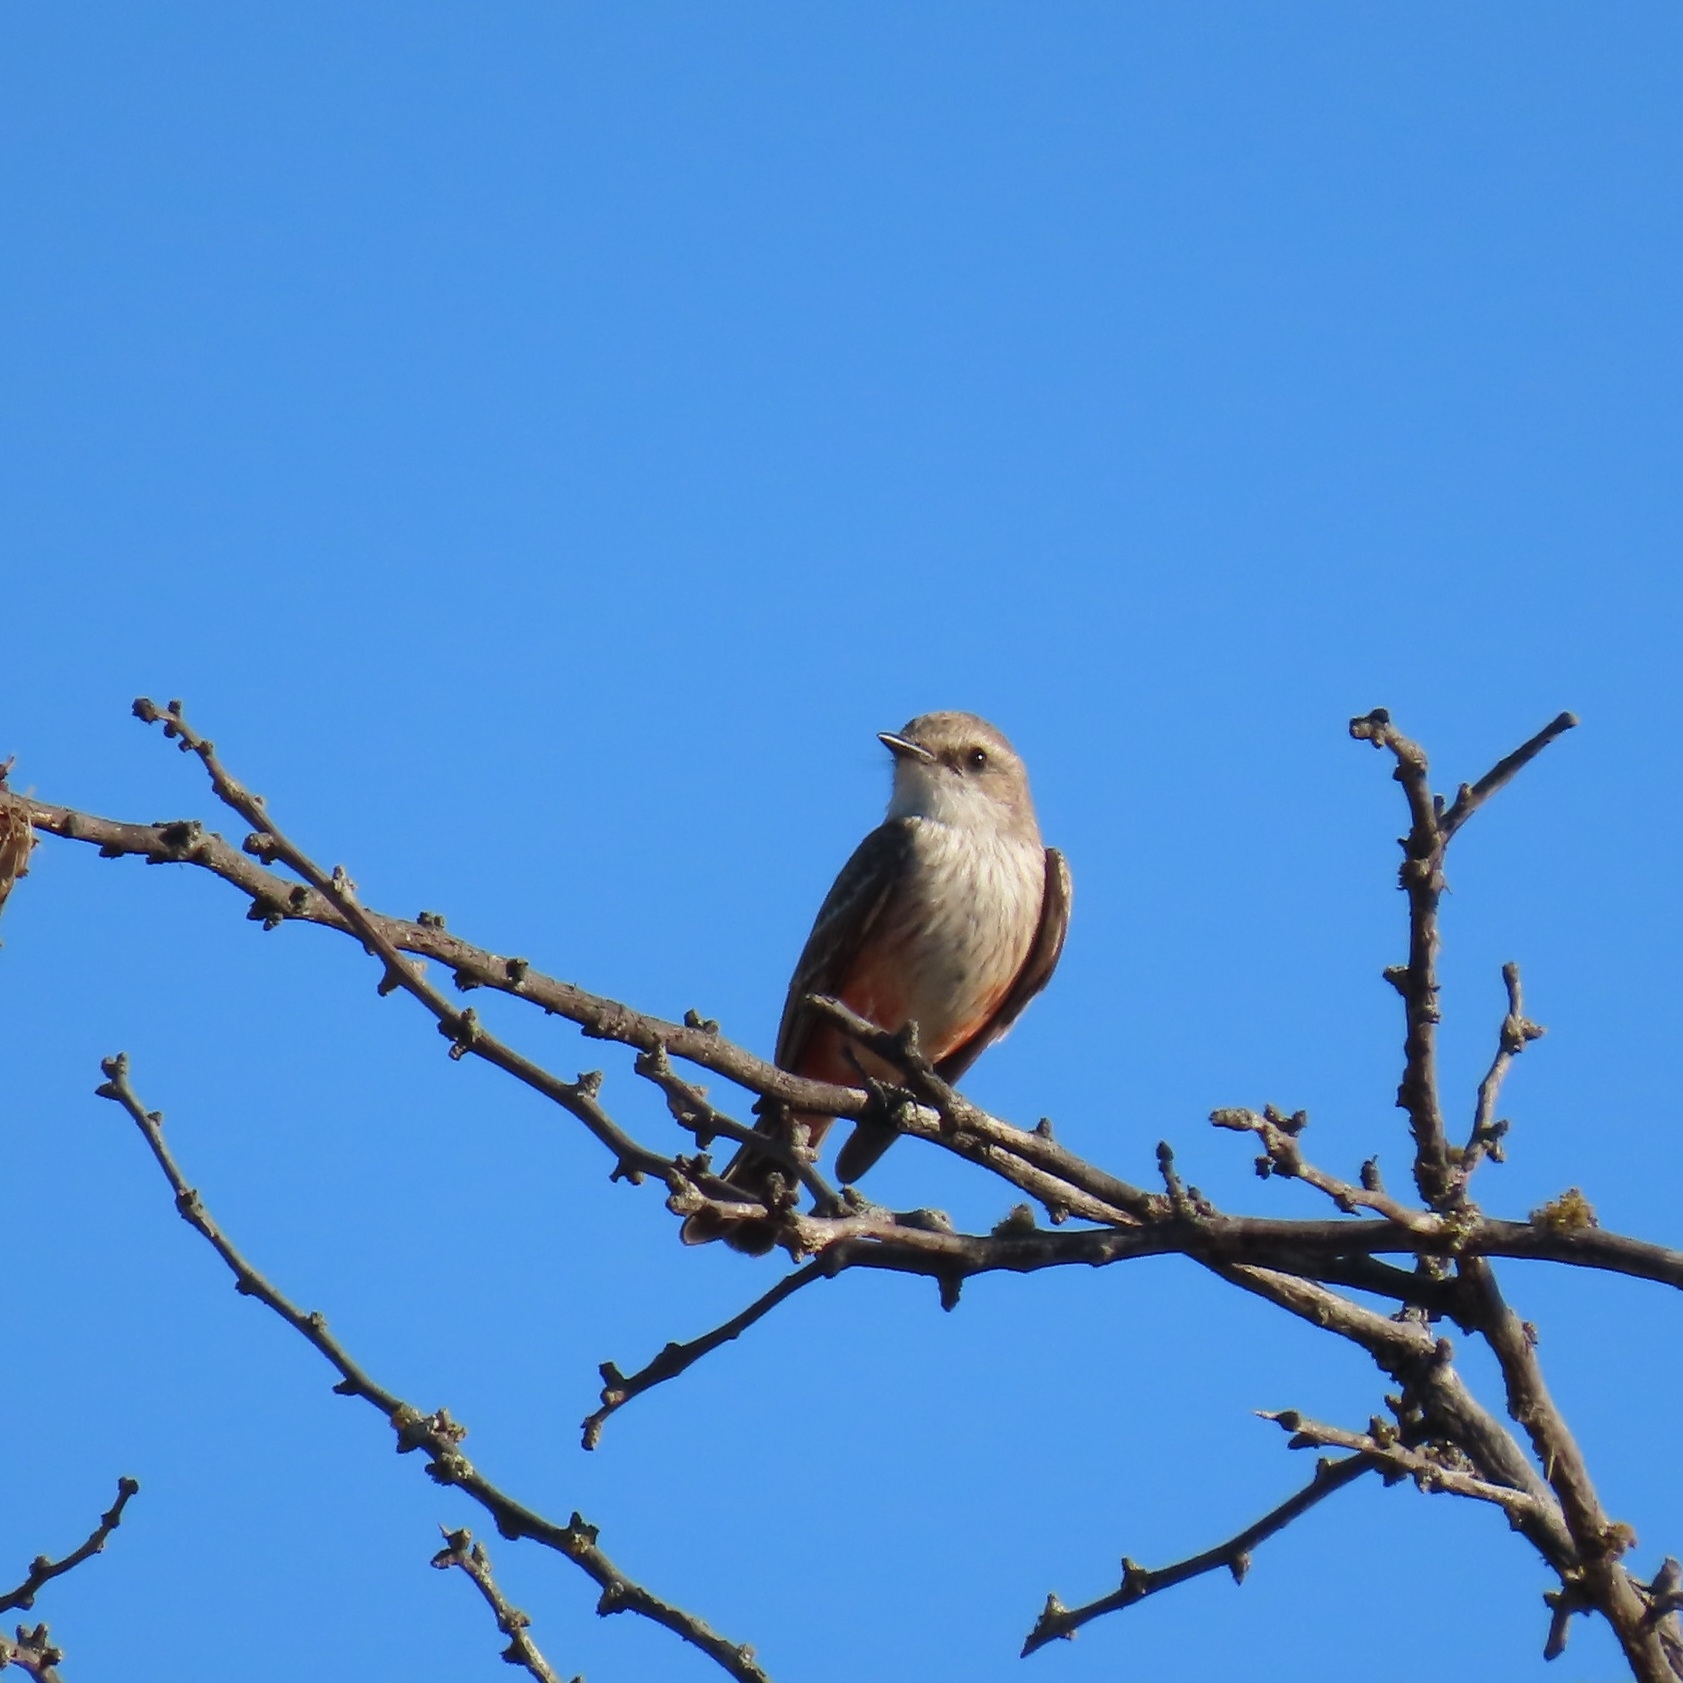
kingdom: Animalia
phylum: Chordata
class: Aves
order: Passeriformes
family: Tyrannidae
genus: Pyrocephalus
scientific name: Pyrocephalus rubinus
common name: Vermilion flycatcher
